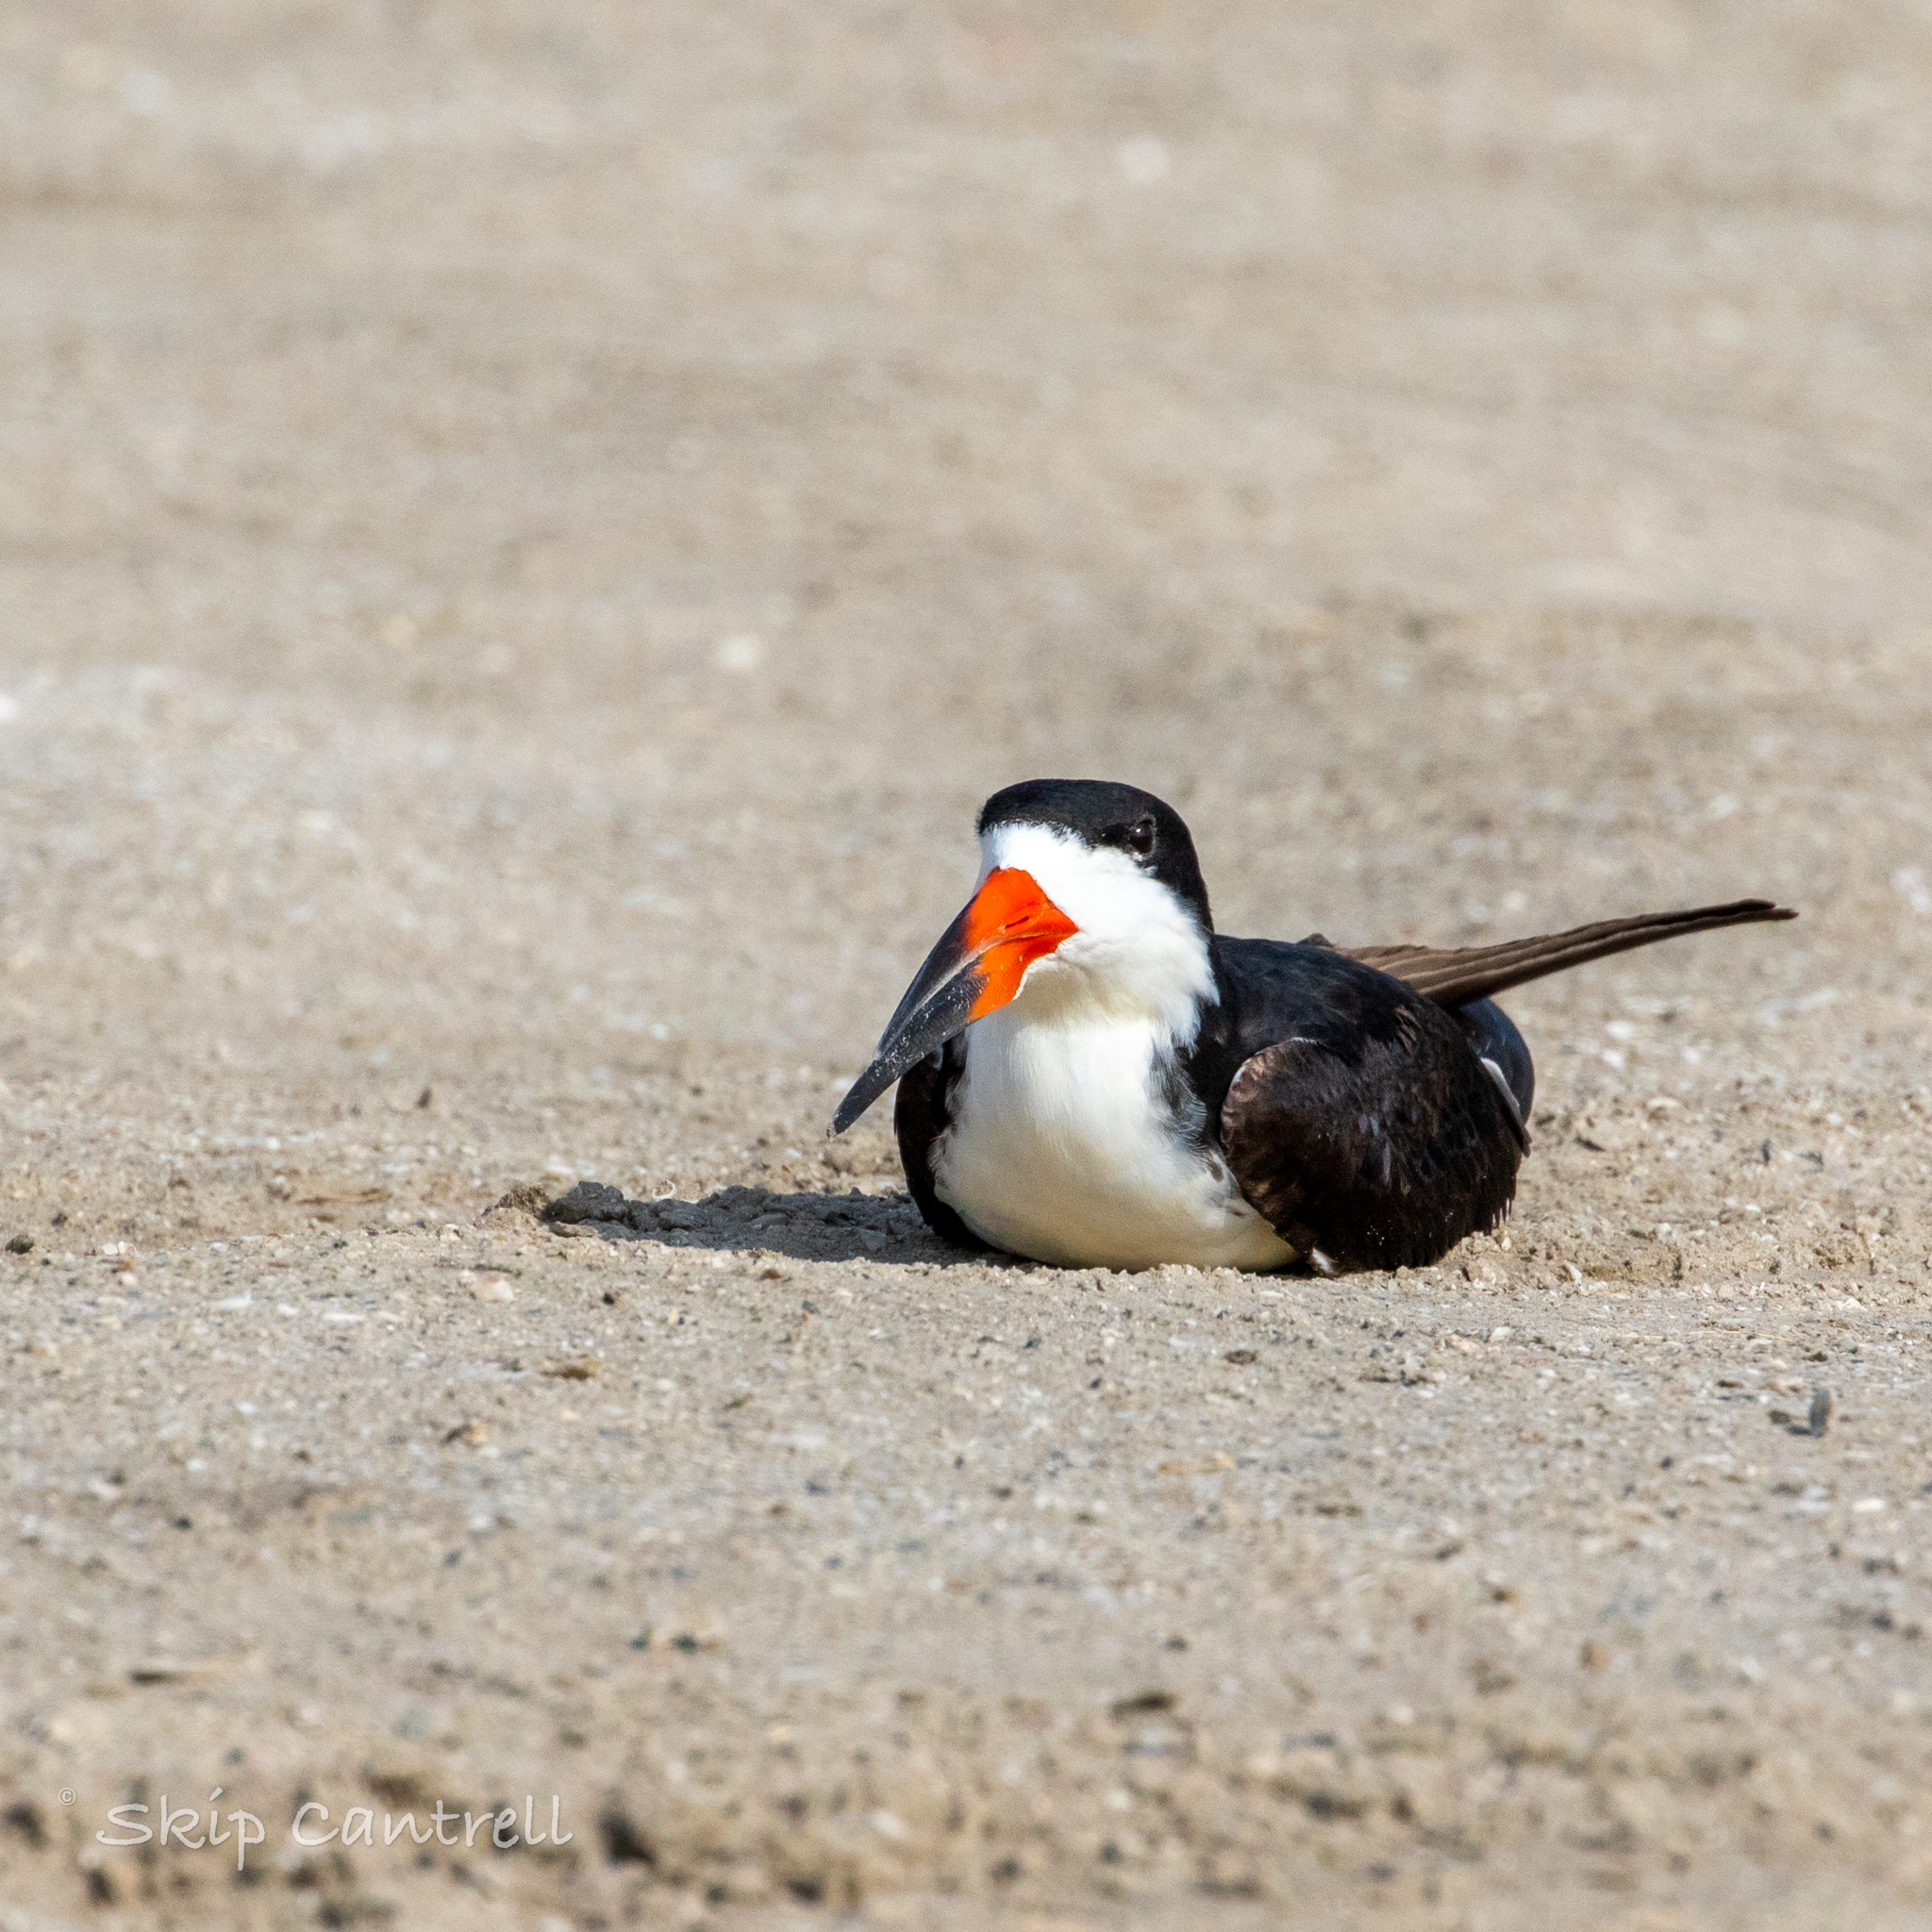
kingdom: Animalia
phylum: Chordata
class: Aves
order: Charadriiformes
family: Laridae
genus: Rynchops
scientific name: Rynchops niger
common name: Black skimmer
